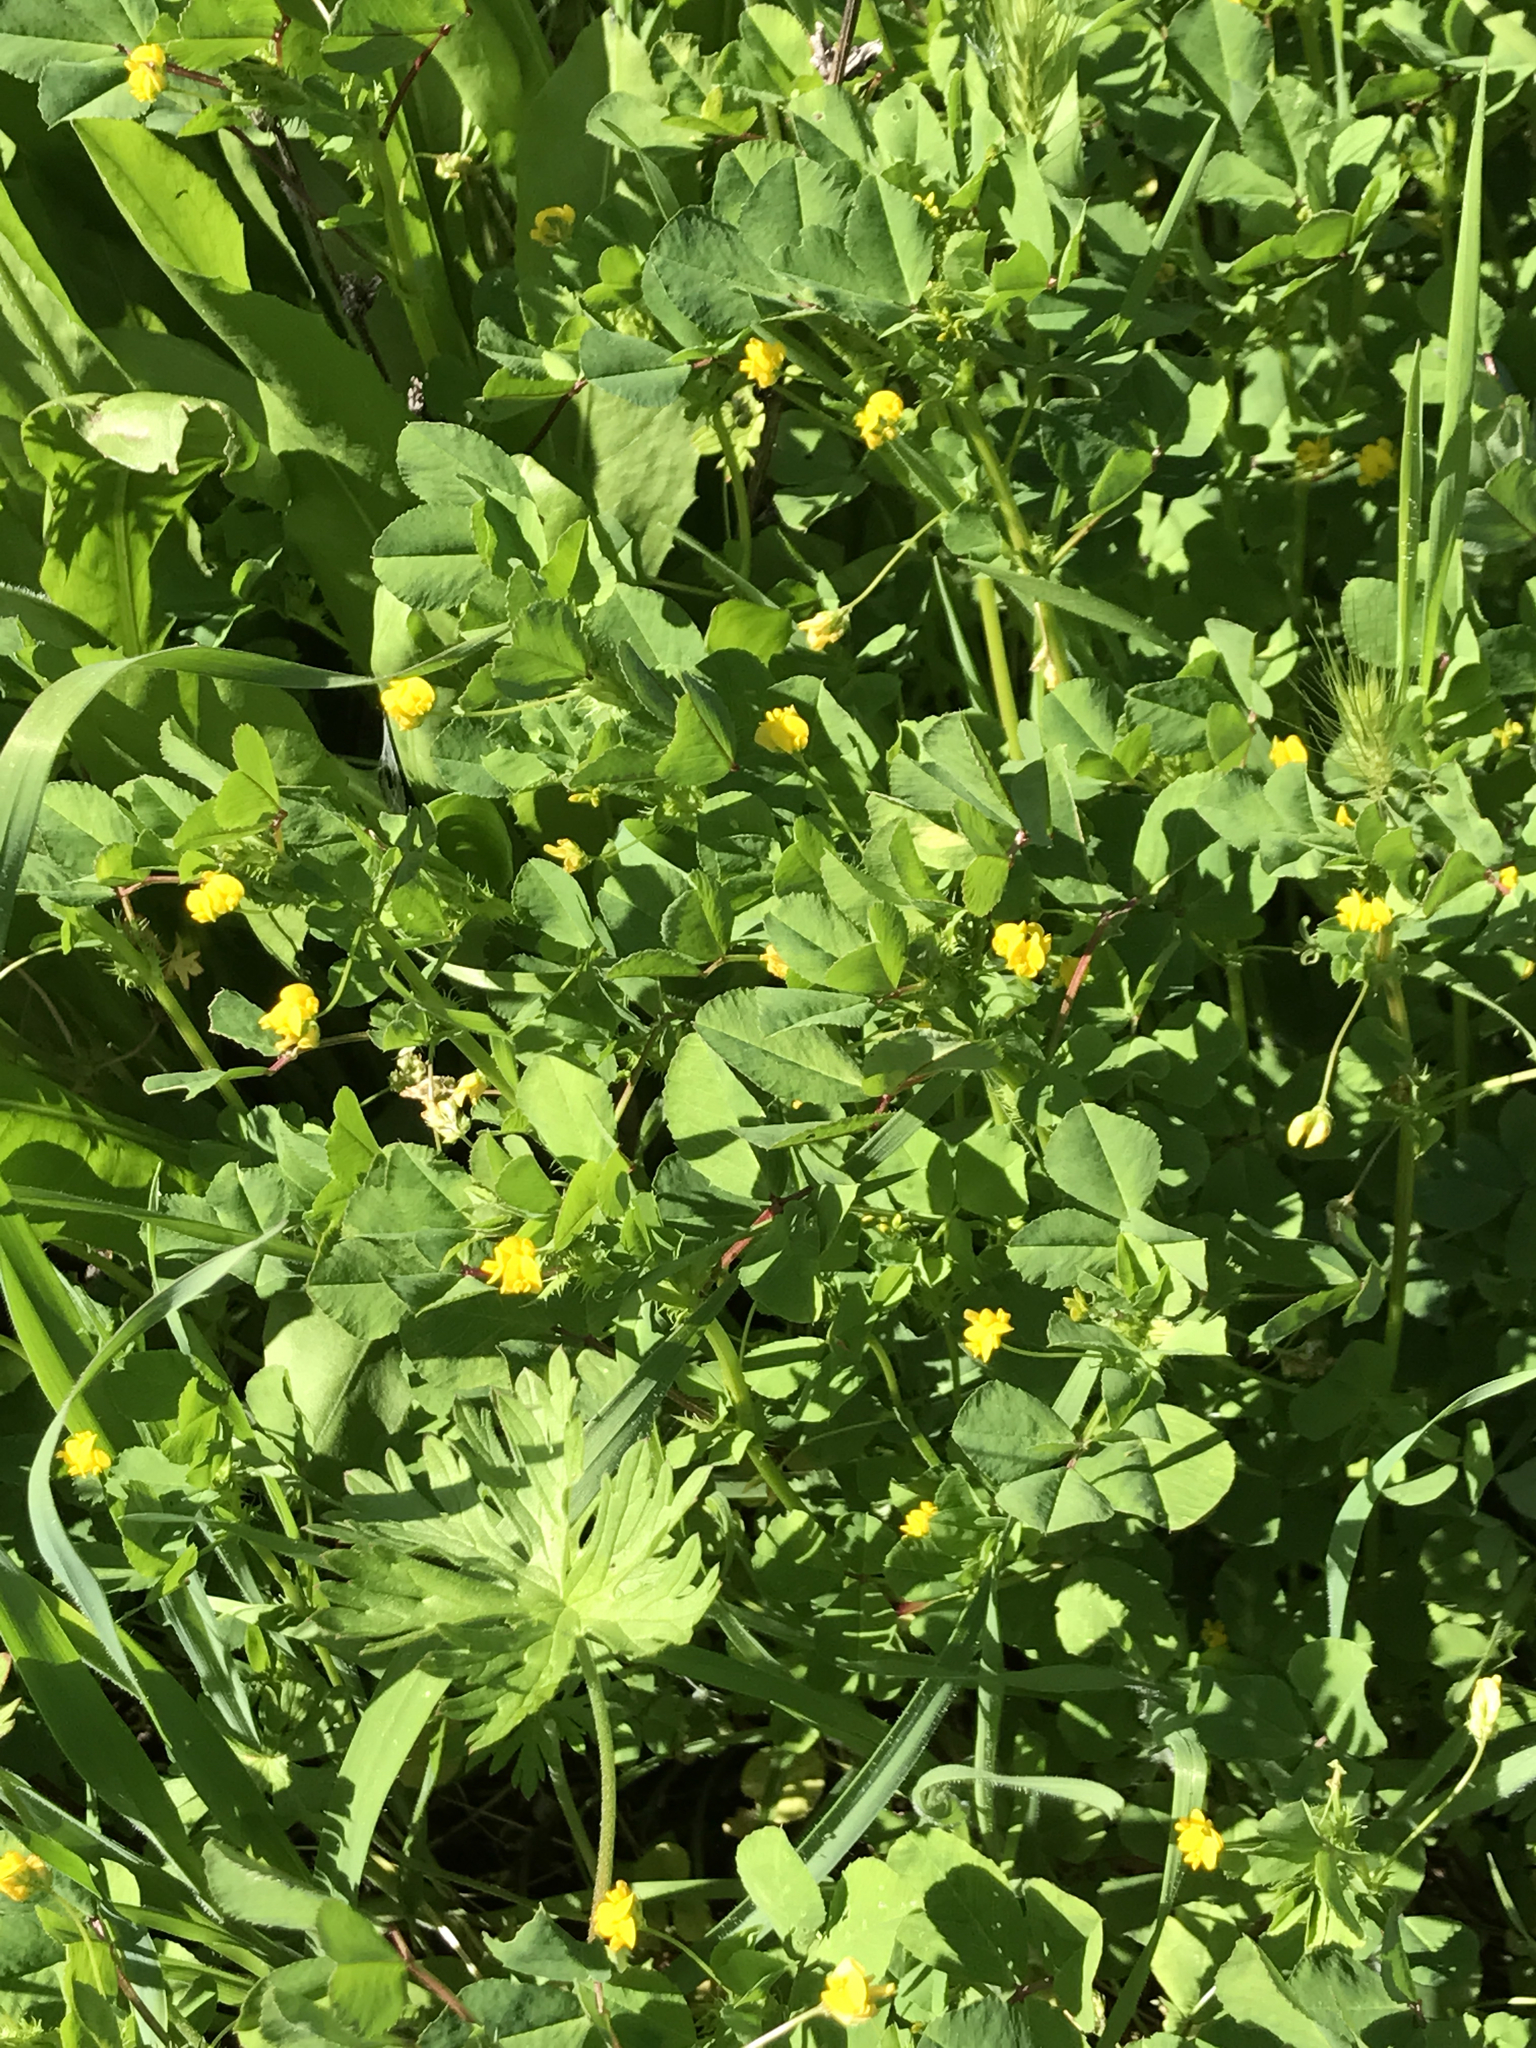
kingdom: Plantae
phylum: Tracheophyta
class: Magnoliopsida
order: Fabales
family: Fabaceae
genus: Medicago
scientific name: Medicago polymorpha
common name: Burclover
